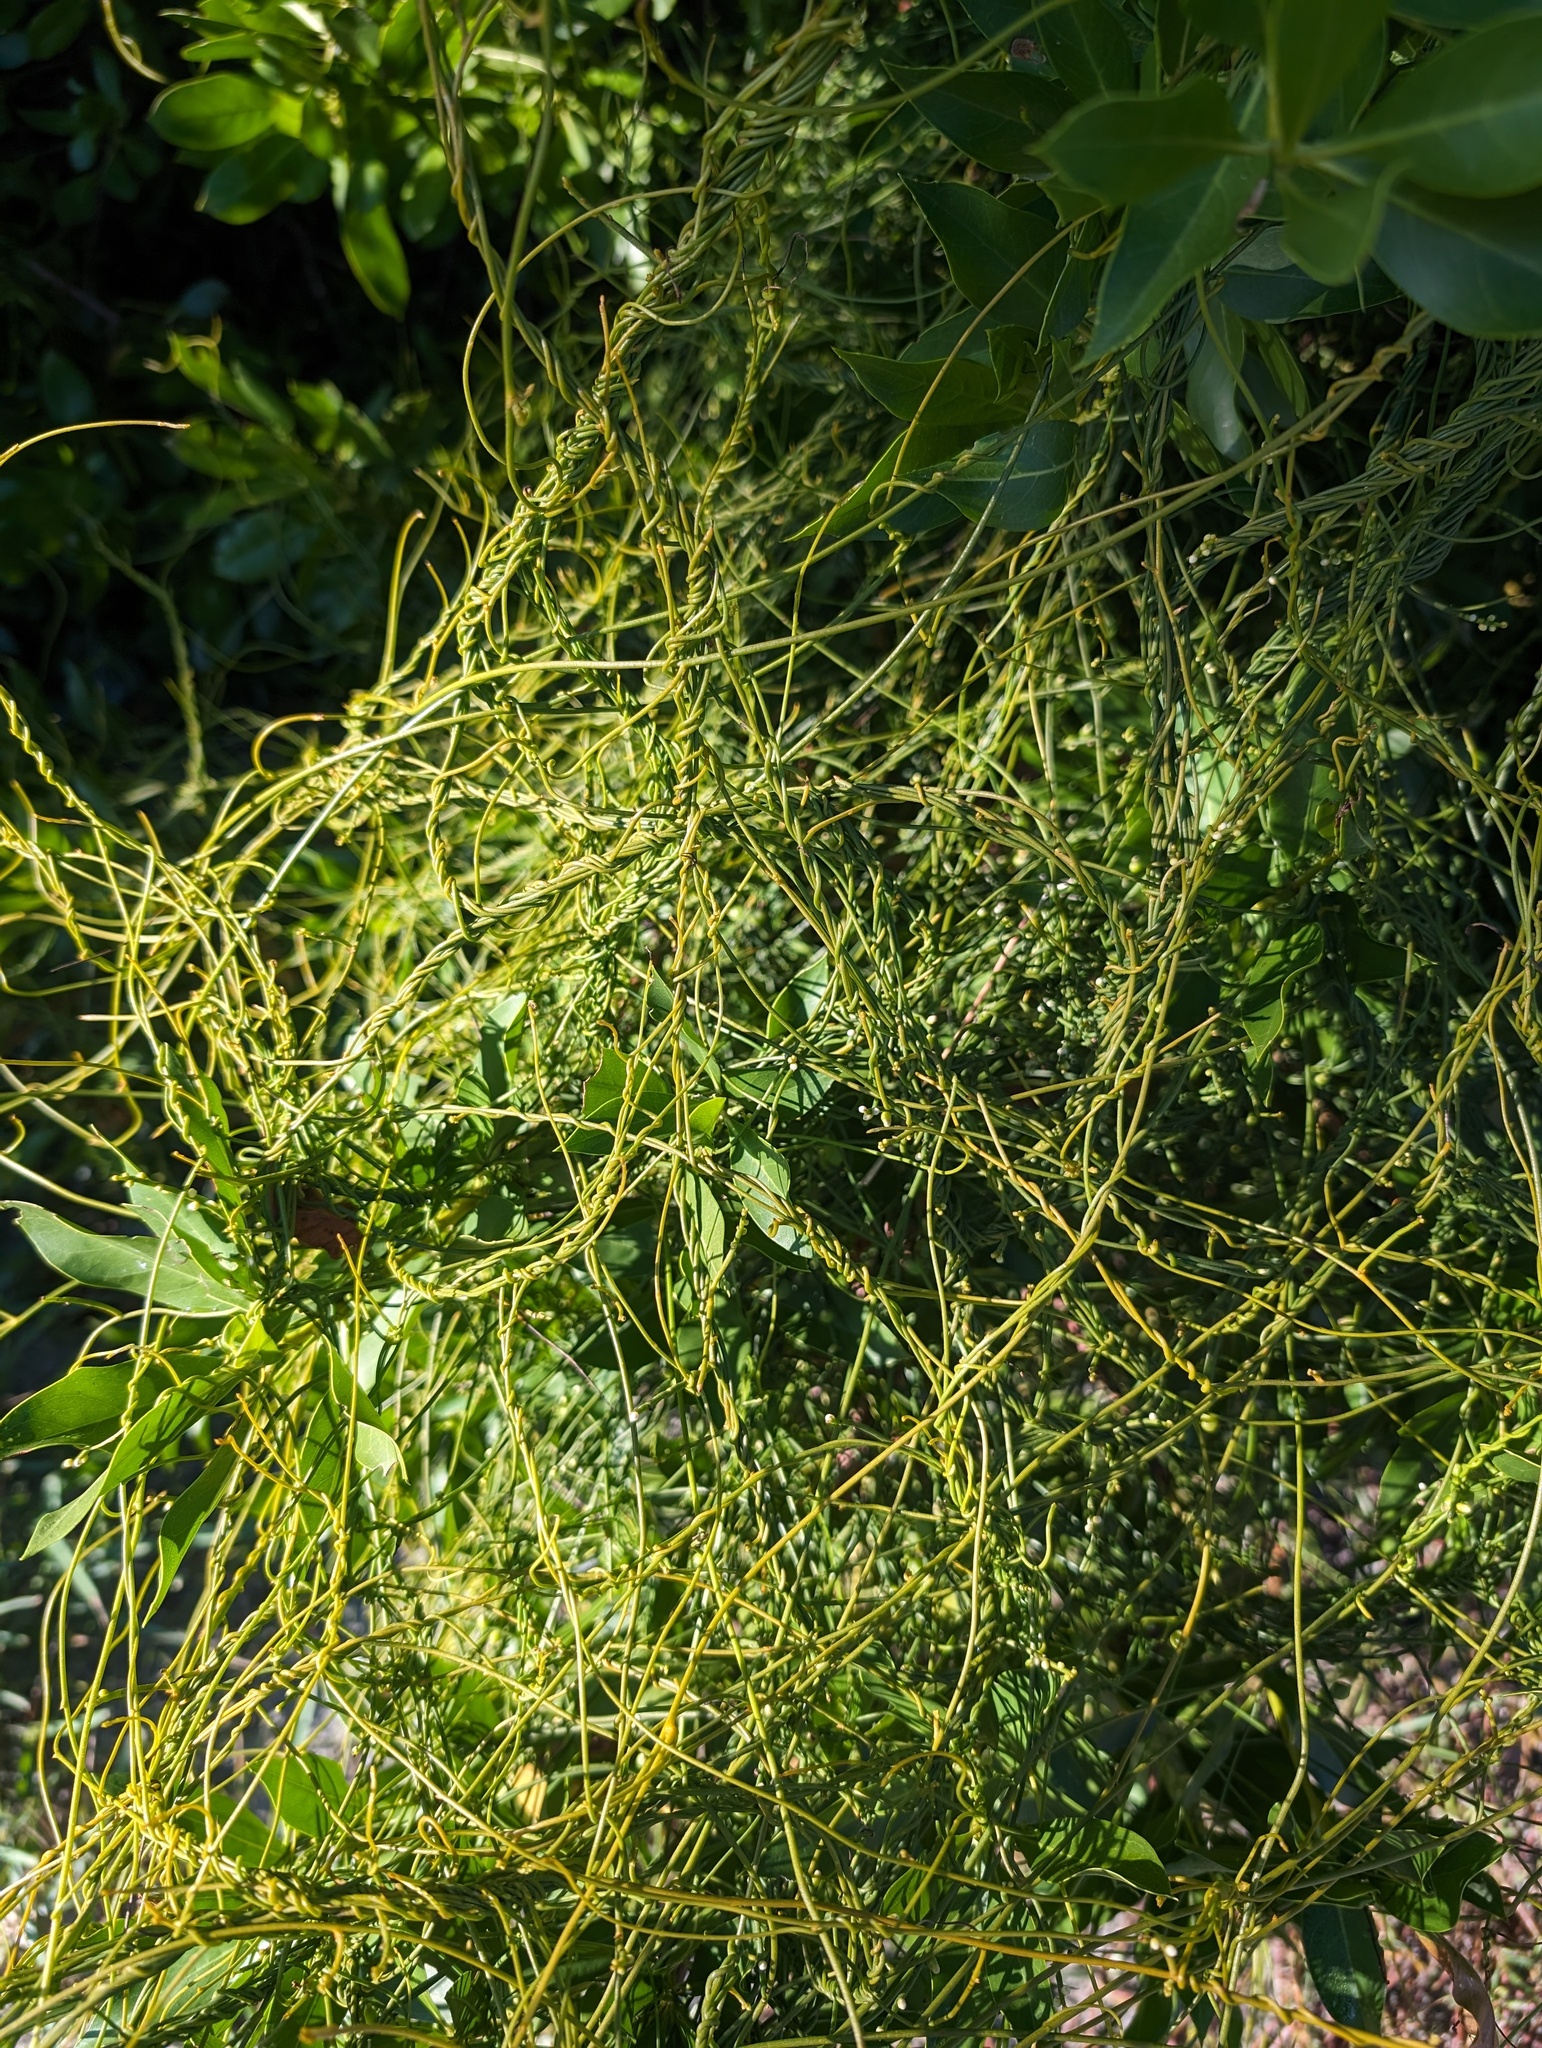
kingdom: Plantae
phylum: Tracheophyta
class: Magnoliopsida
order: Laurales
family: Lauraceae
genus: Cassytha
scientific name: Cassytha filiformis
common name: Dodder-laurel
